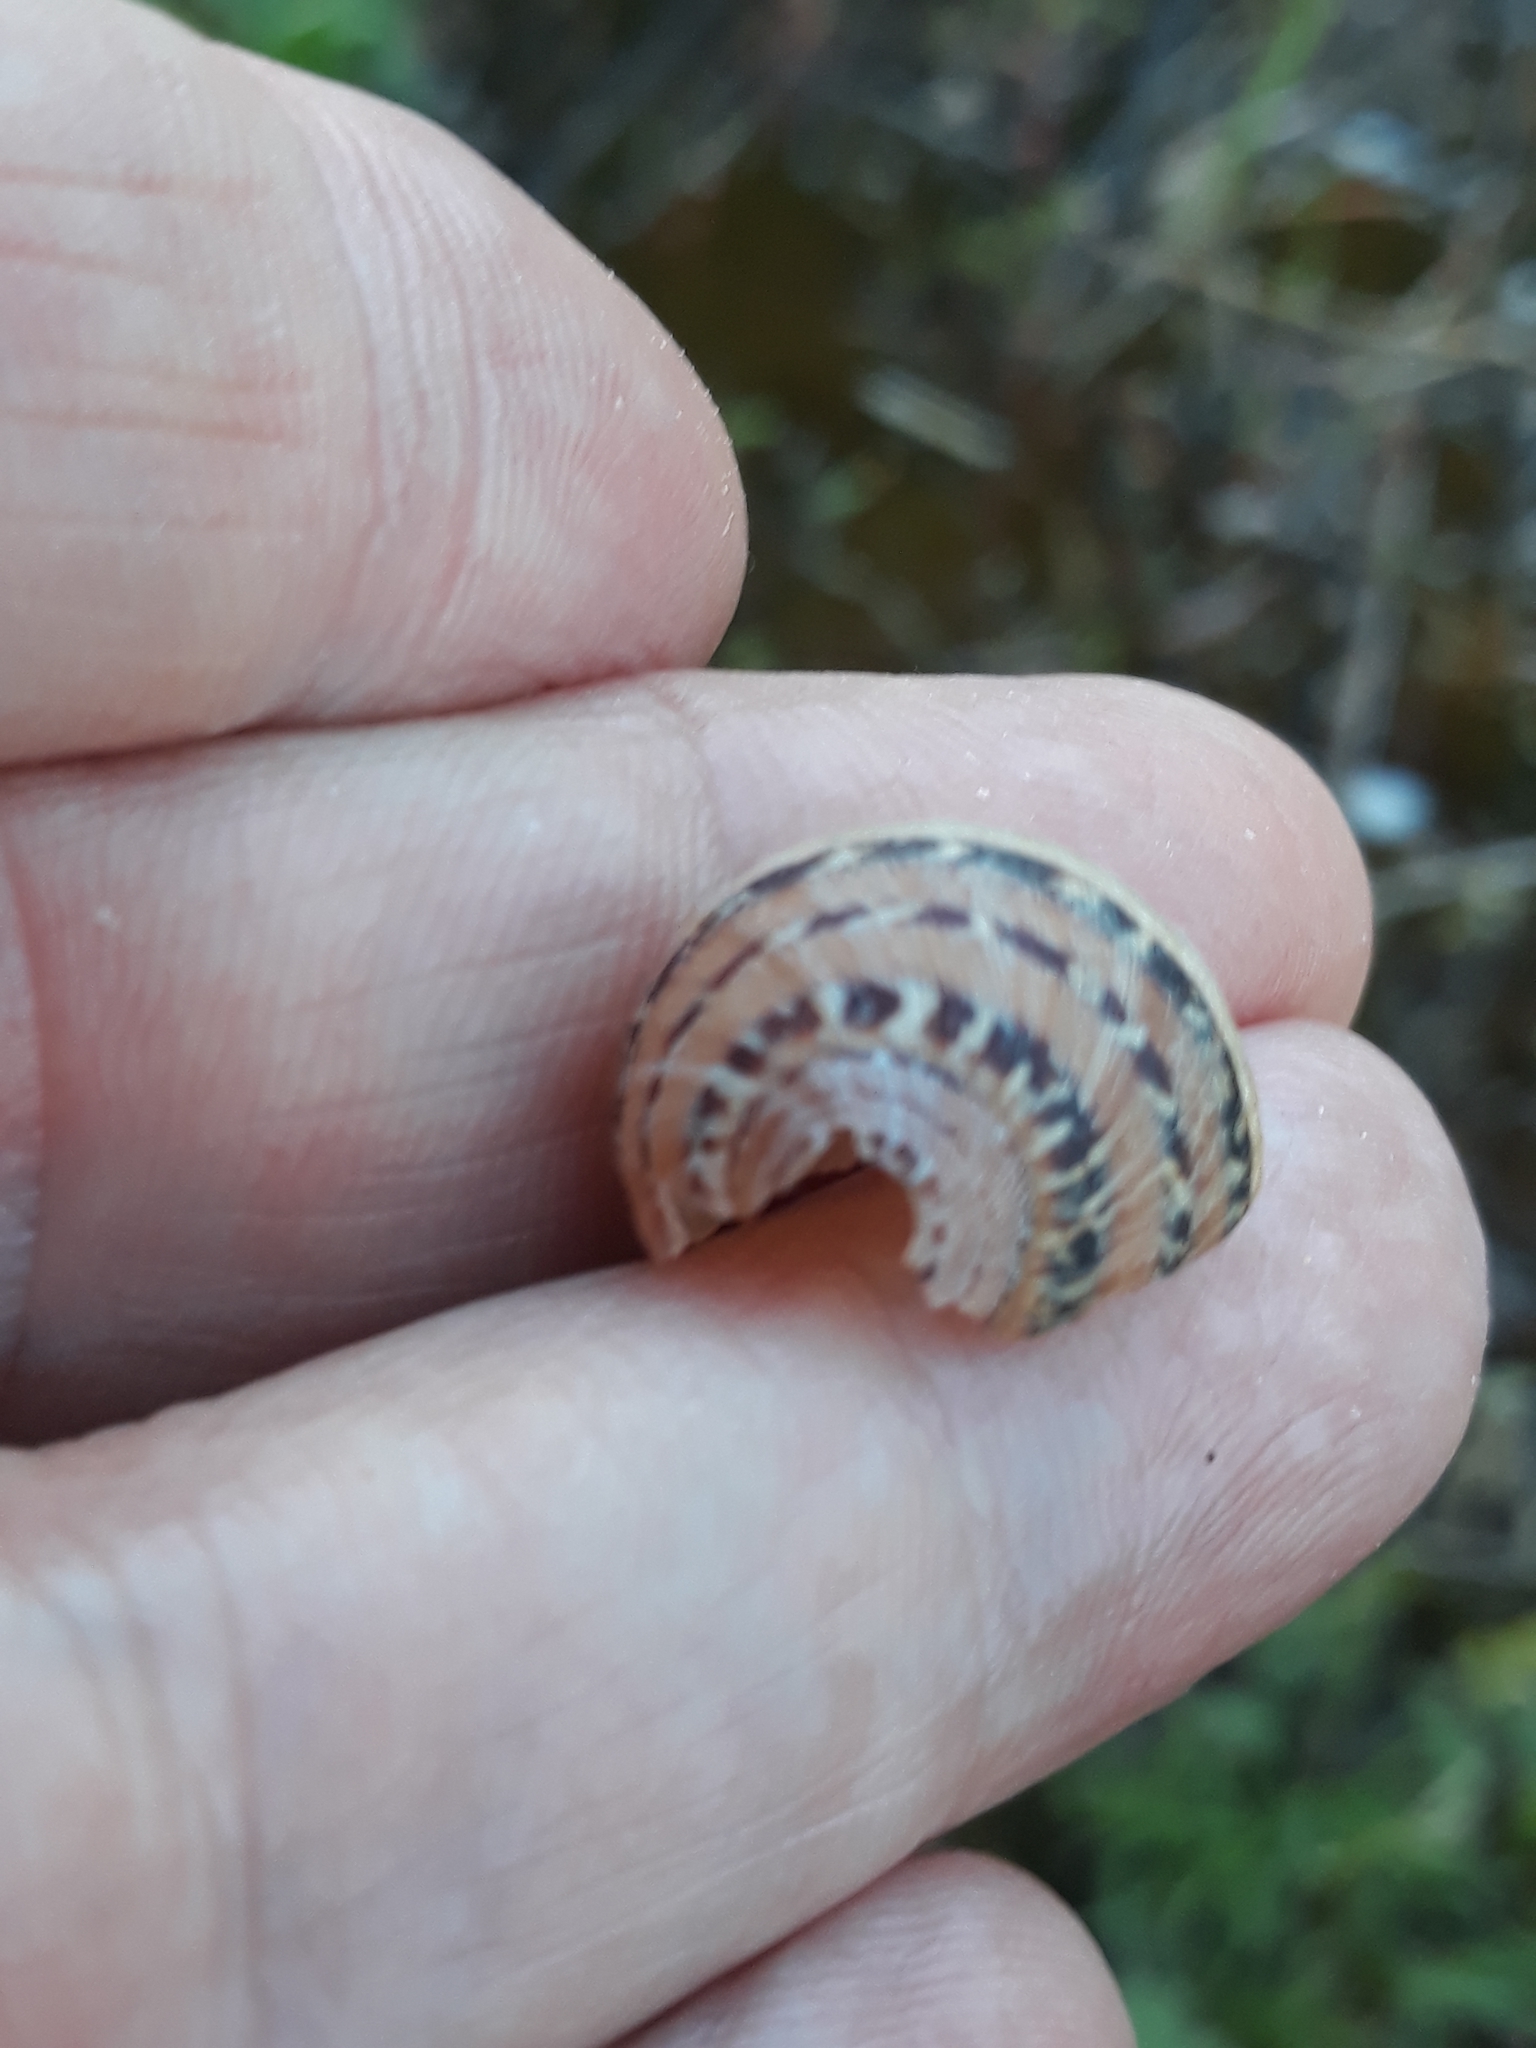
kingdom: Animalia
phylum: Mollusca
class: Gastropoda
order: Stylommatophora
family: Helicidae
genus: Cornu
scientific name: Cornu aspersum
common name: Brown garden snail
